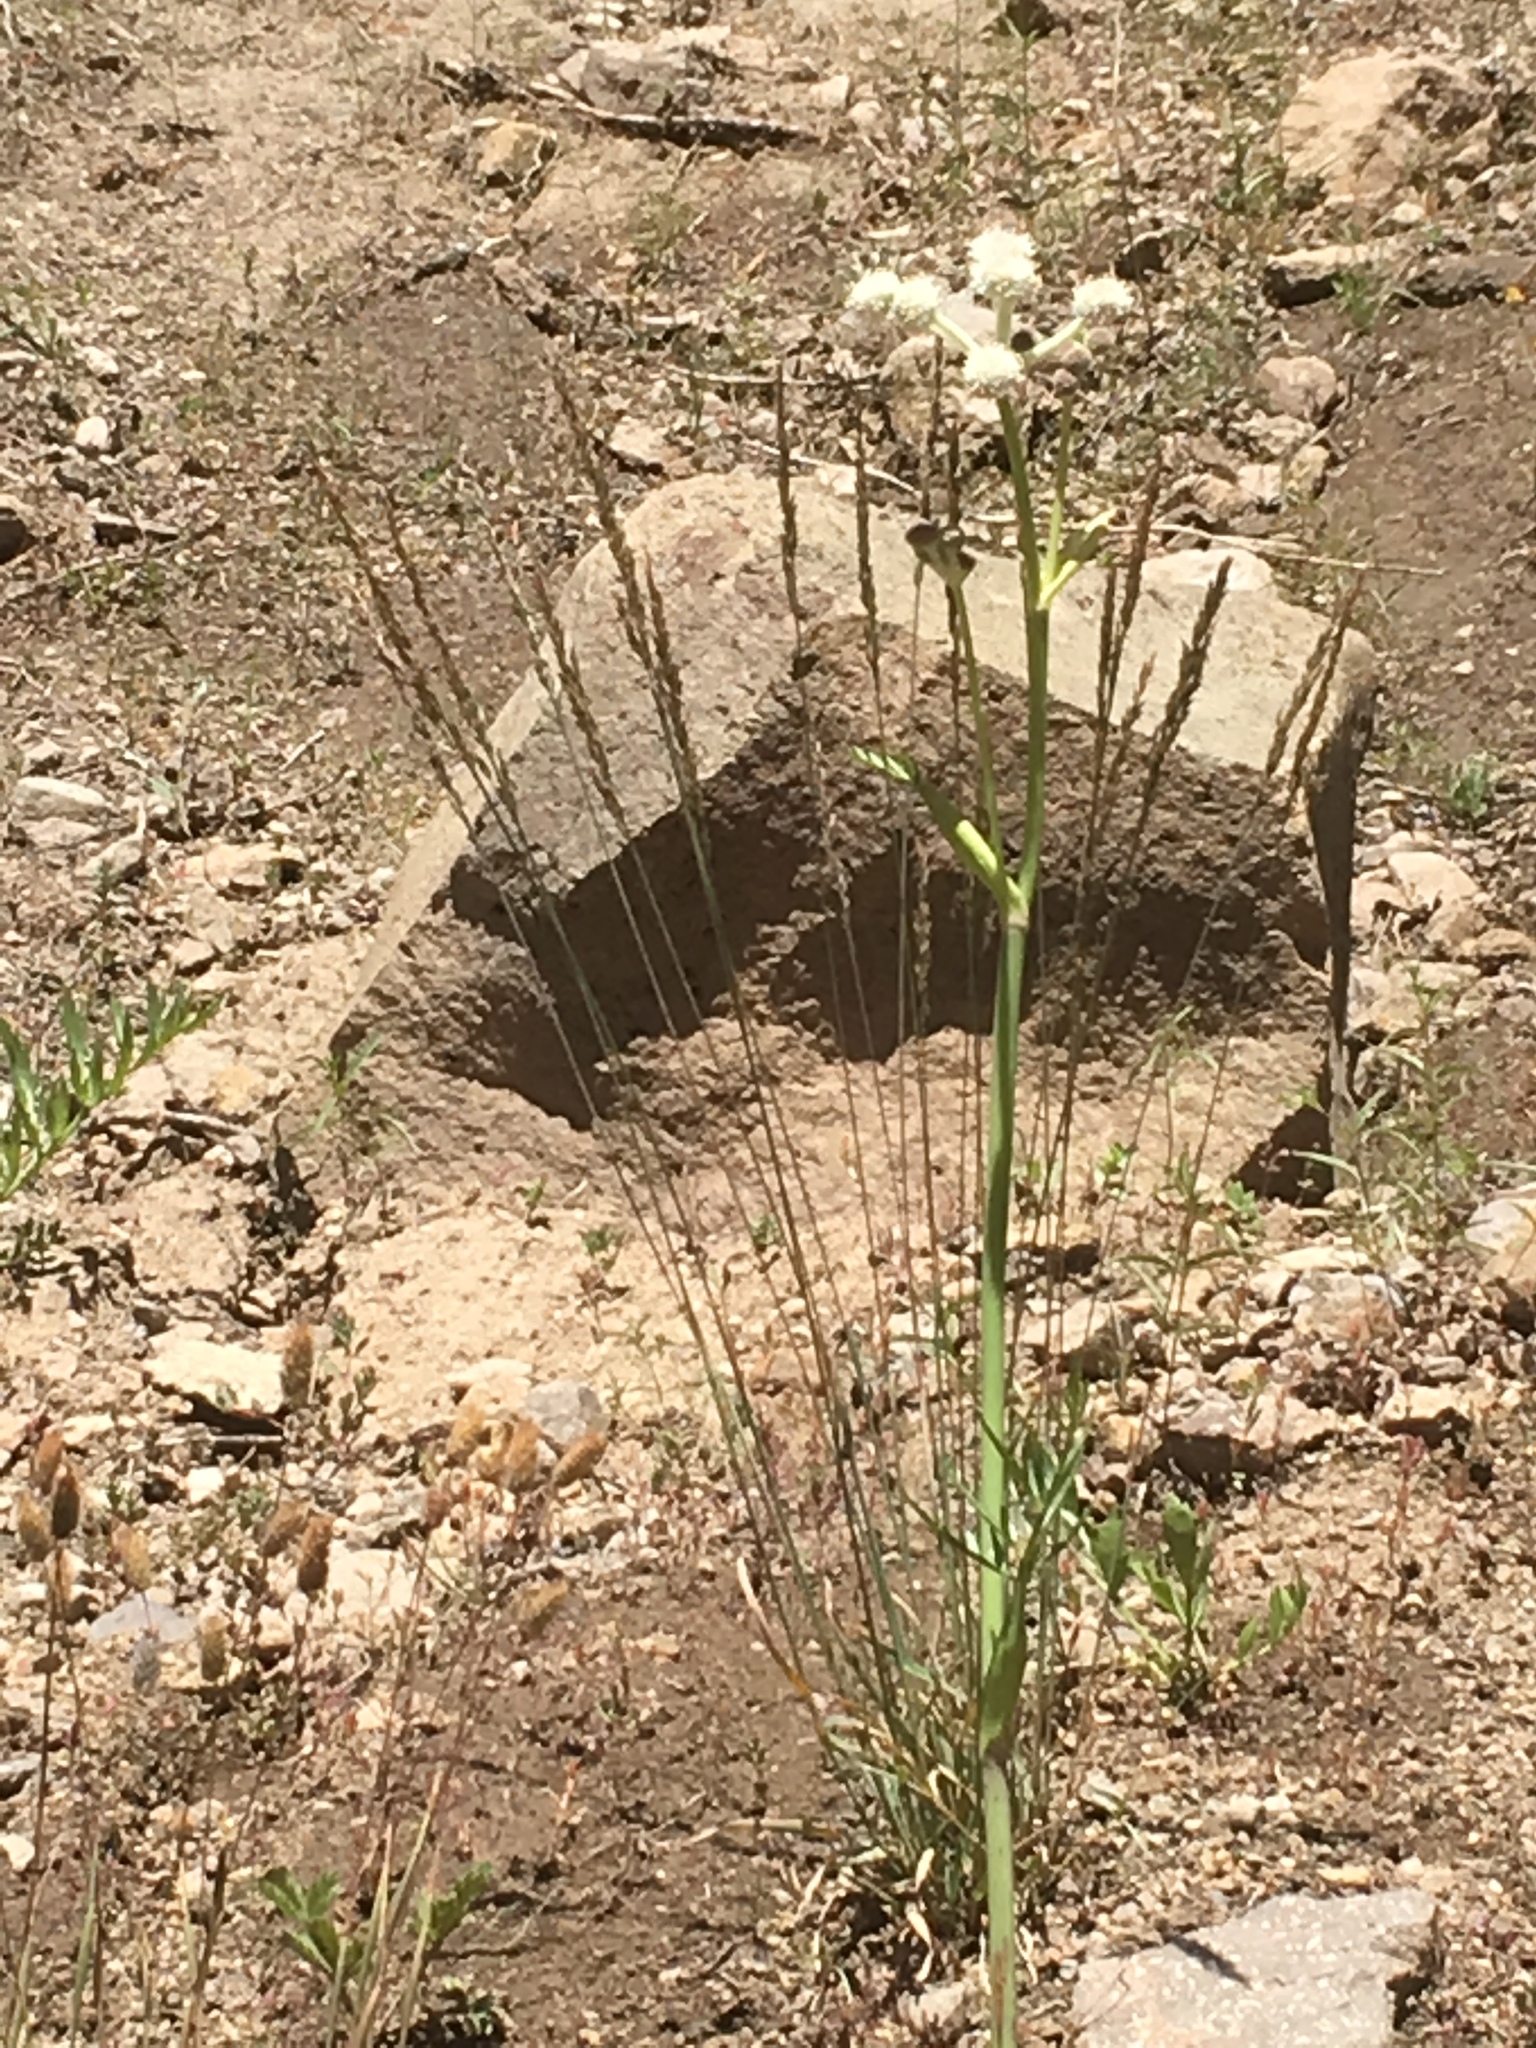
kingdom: Plantae
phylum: Tracheophyta
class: Magnoliopsida
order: Apiales
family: Apiaceae
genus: Angelica
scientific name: Angelica capitellata
